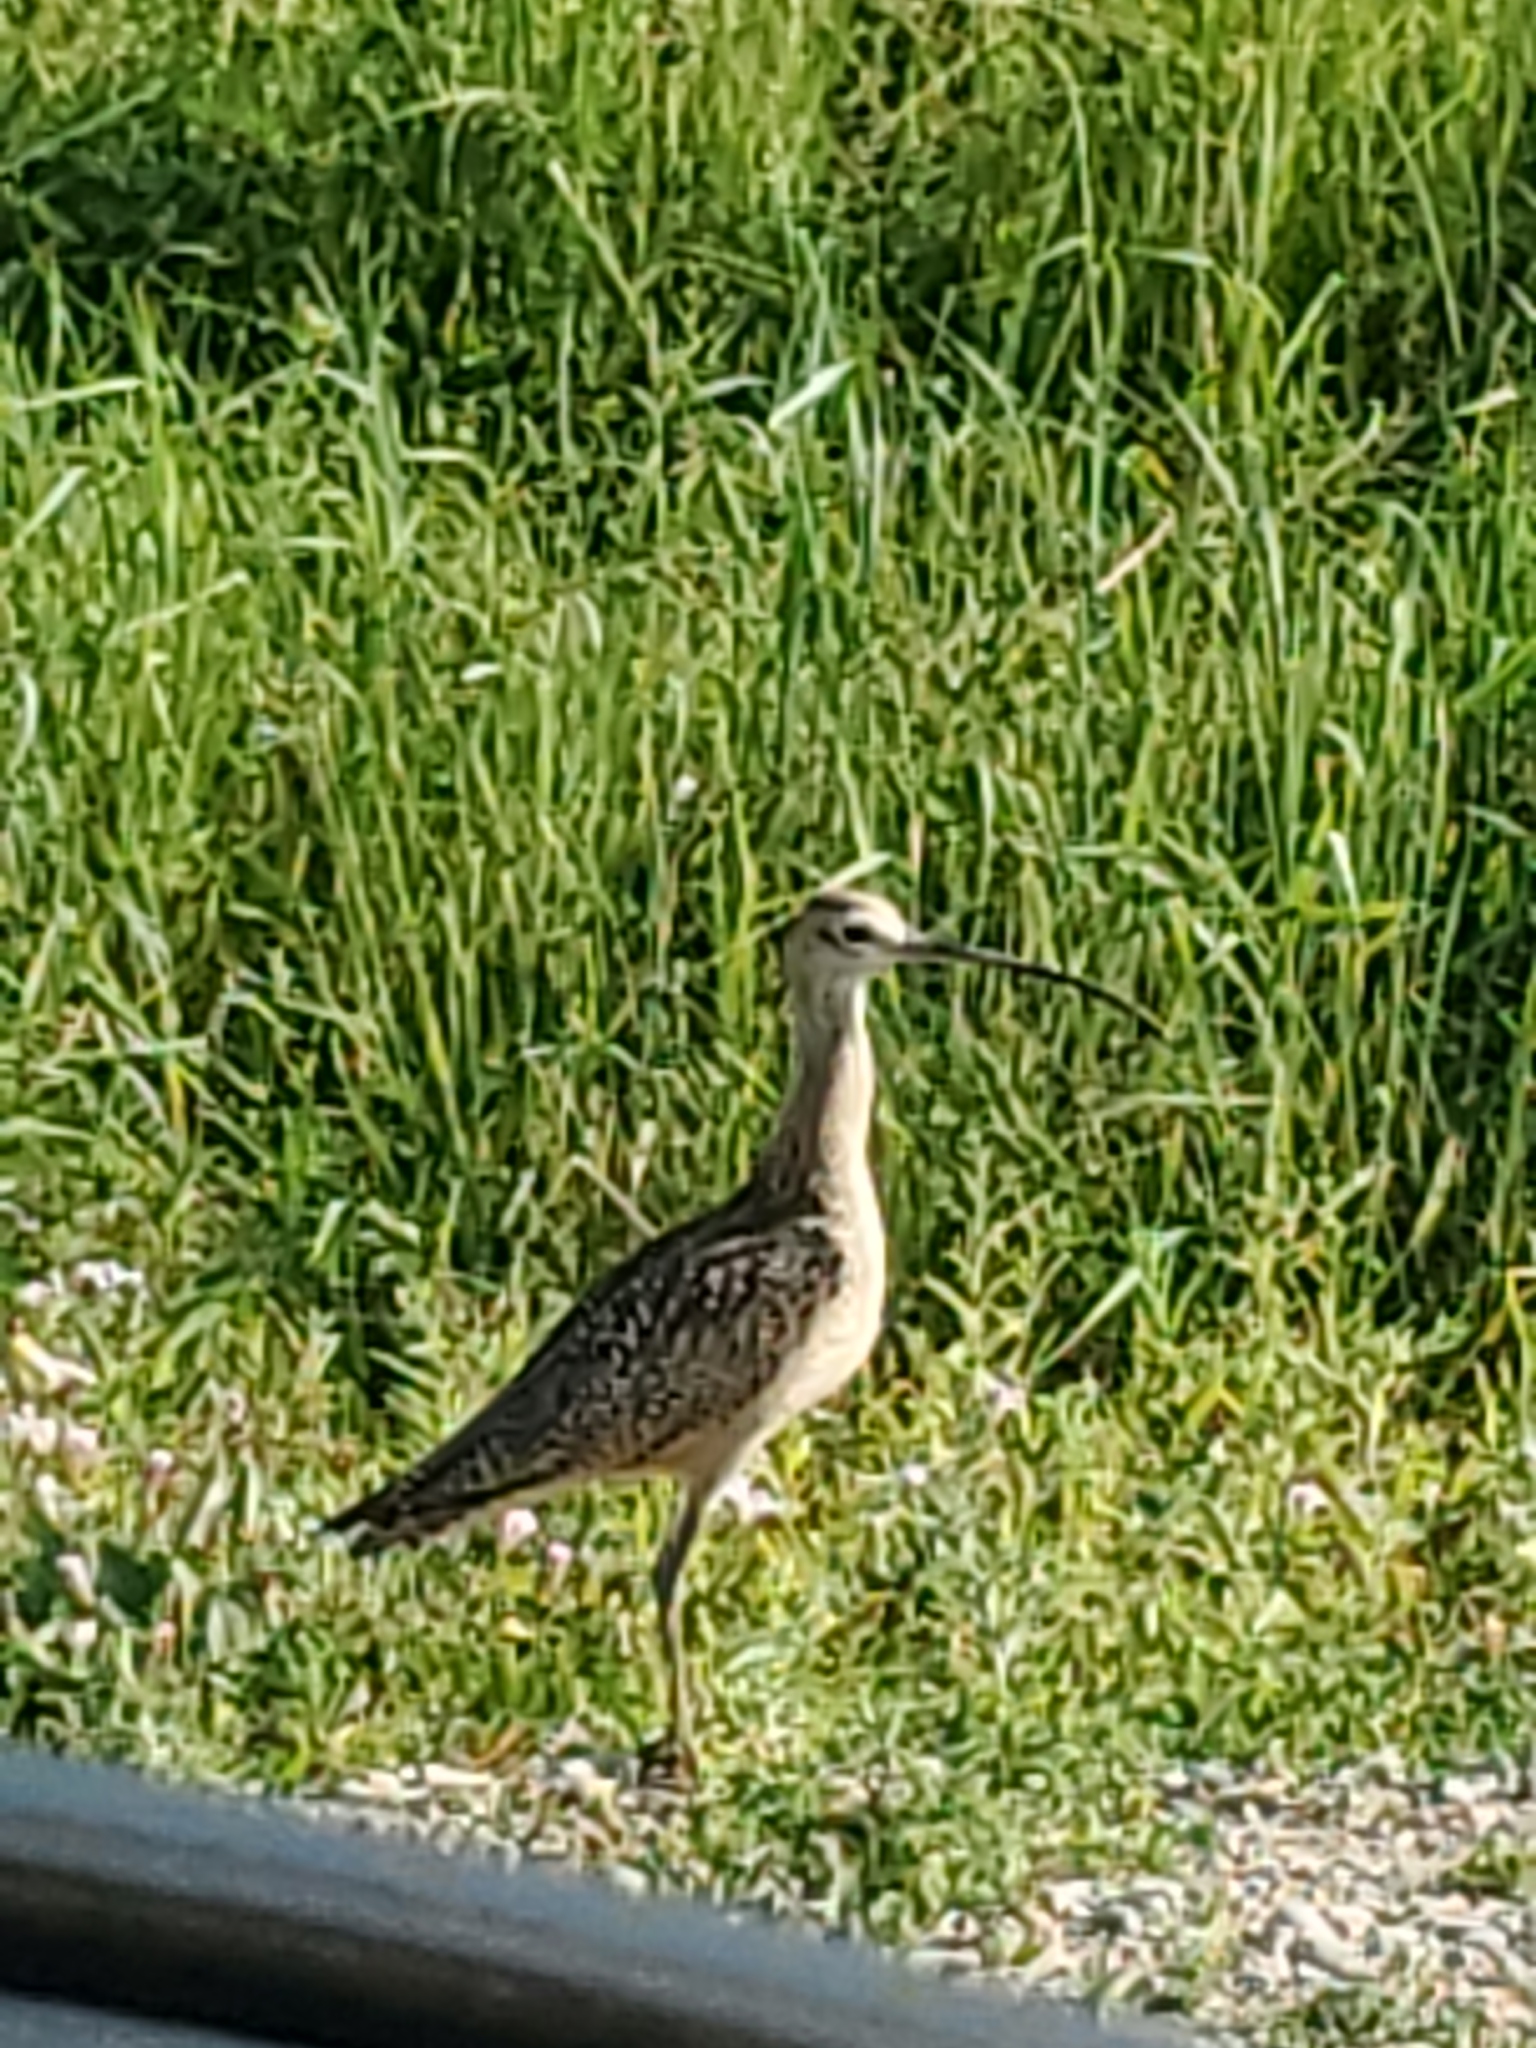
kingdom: Animalia
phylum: Chordata
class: Aves
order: Charadriiformes
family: Scolopacidae
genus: Numenius
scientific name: Numenius americanus
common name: Long-billed curlew
